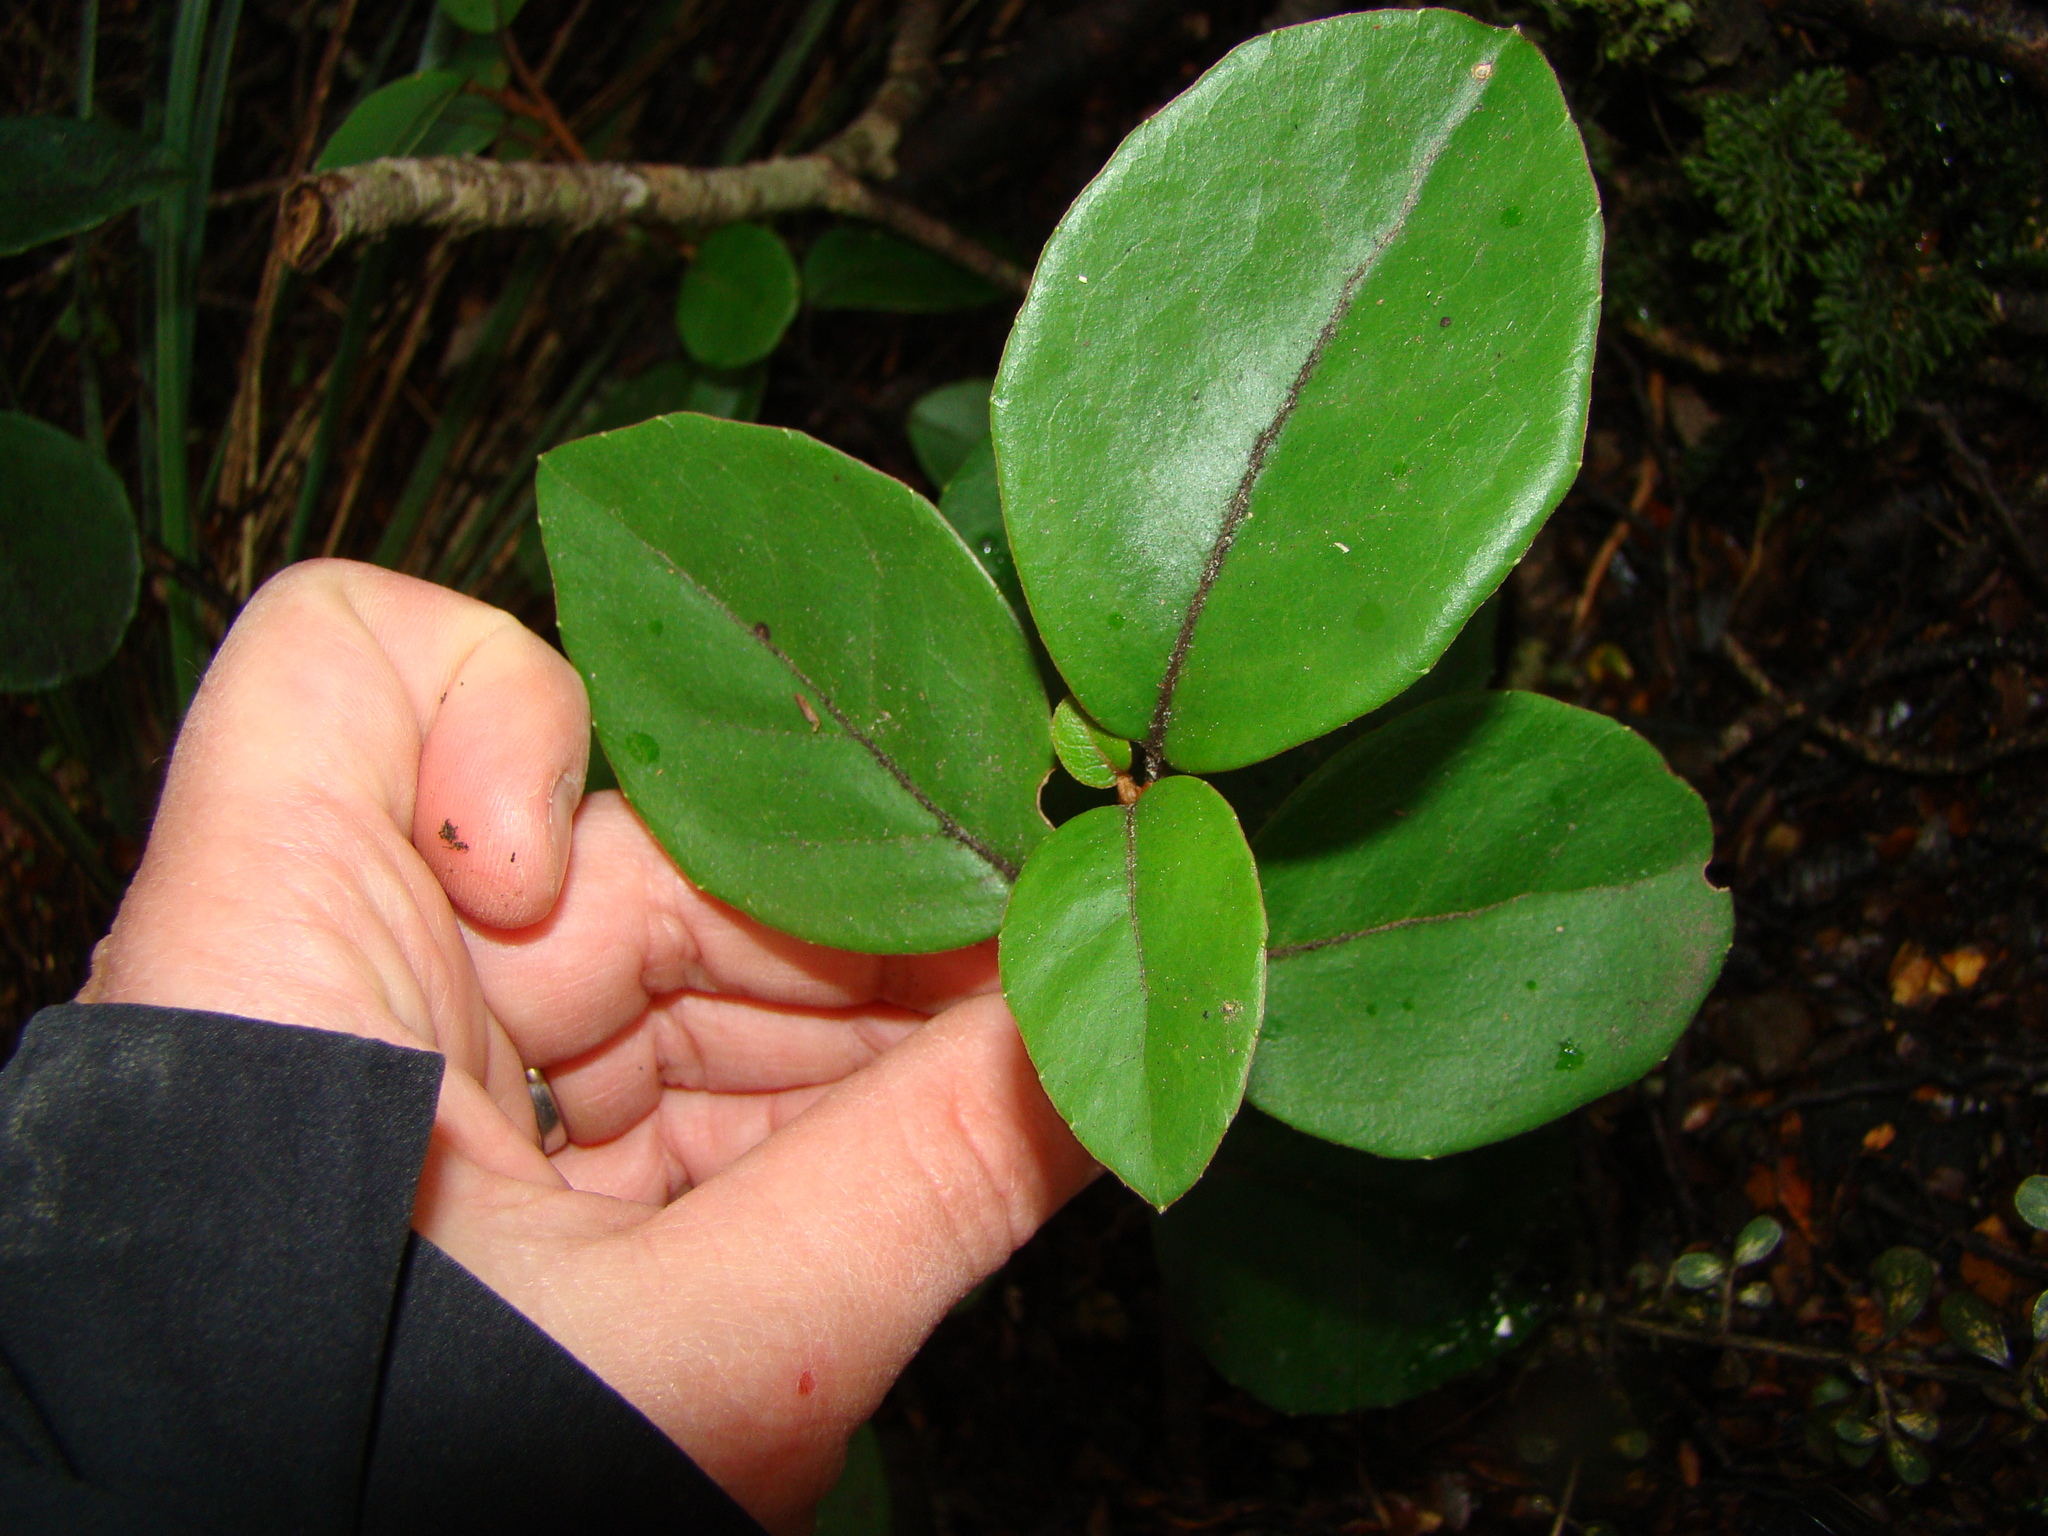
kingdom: Plantae
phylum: Tracheophyta
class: Magnoliopsida
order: Asterales
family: Asteraceae
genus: Olearia
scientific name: Olearia arborescens
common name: Glossy tree daisy
